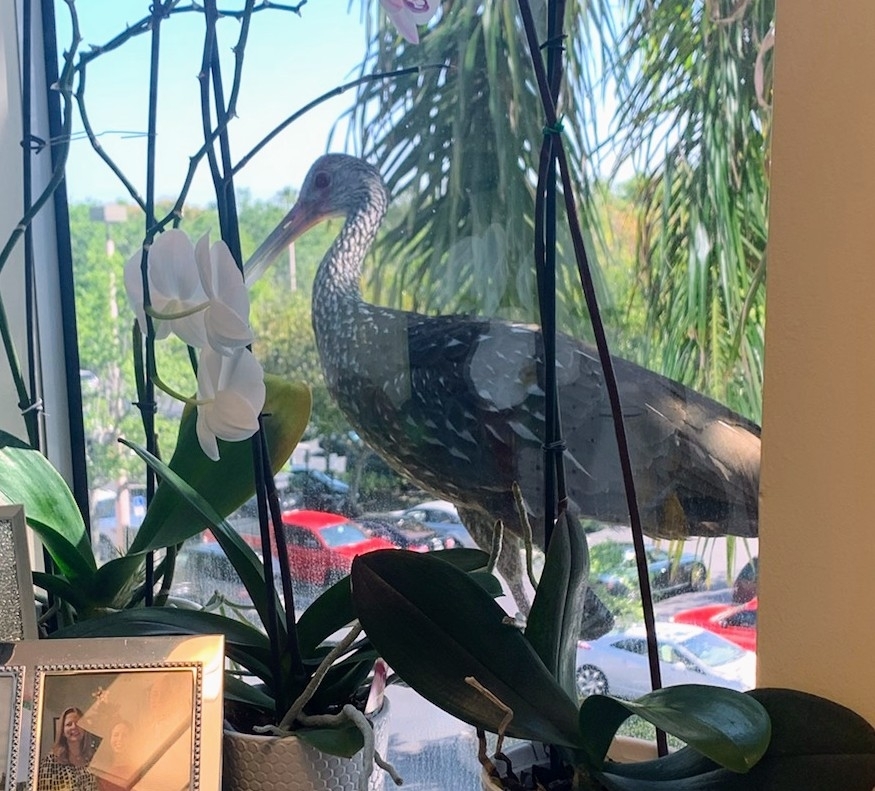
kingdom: Animalia
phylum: Chordata
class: Aves
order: Gruiformes
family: Aramidae
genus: Aramus
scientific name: Aramus guarauna
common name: Limpkin
